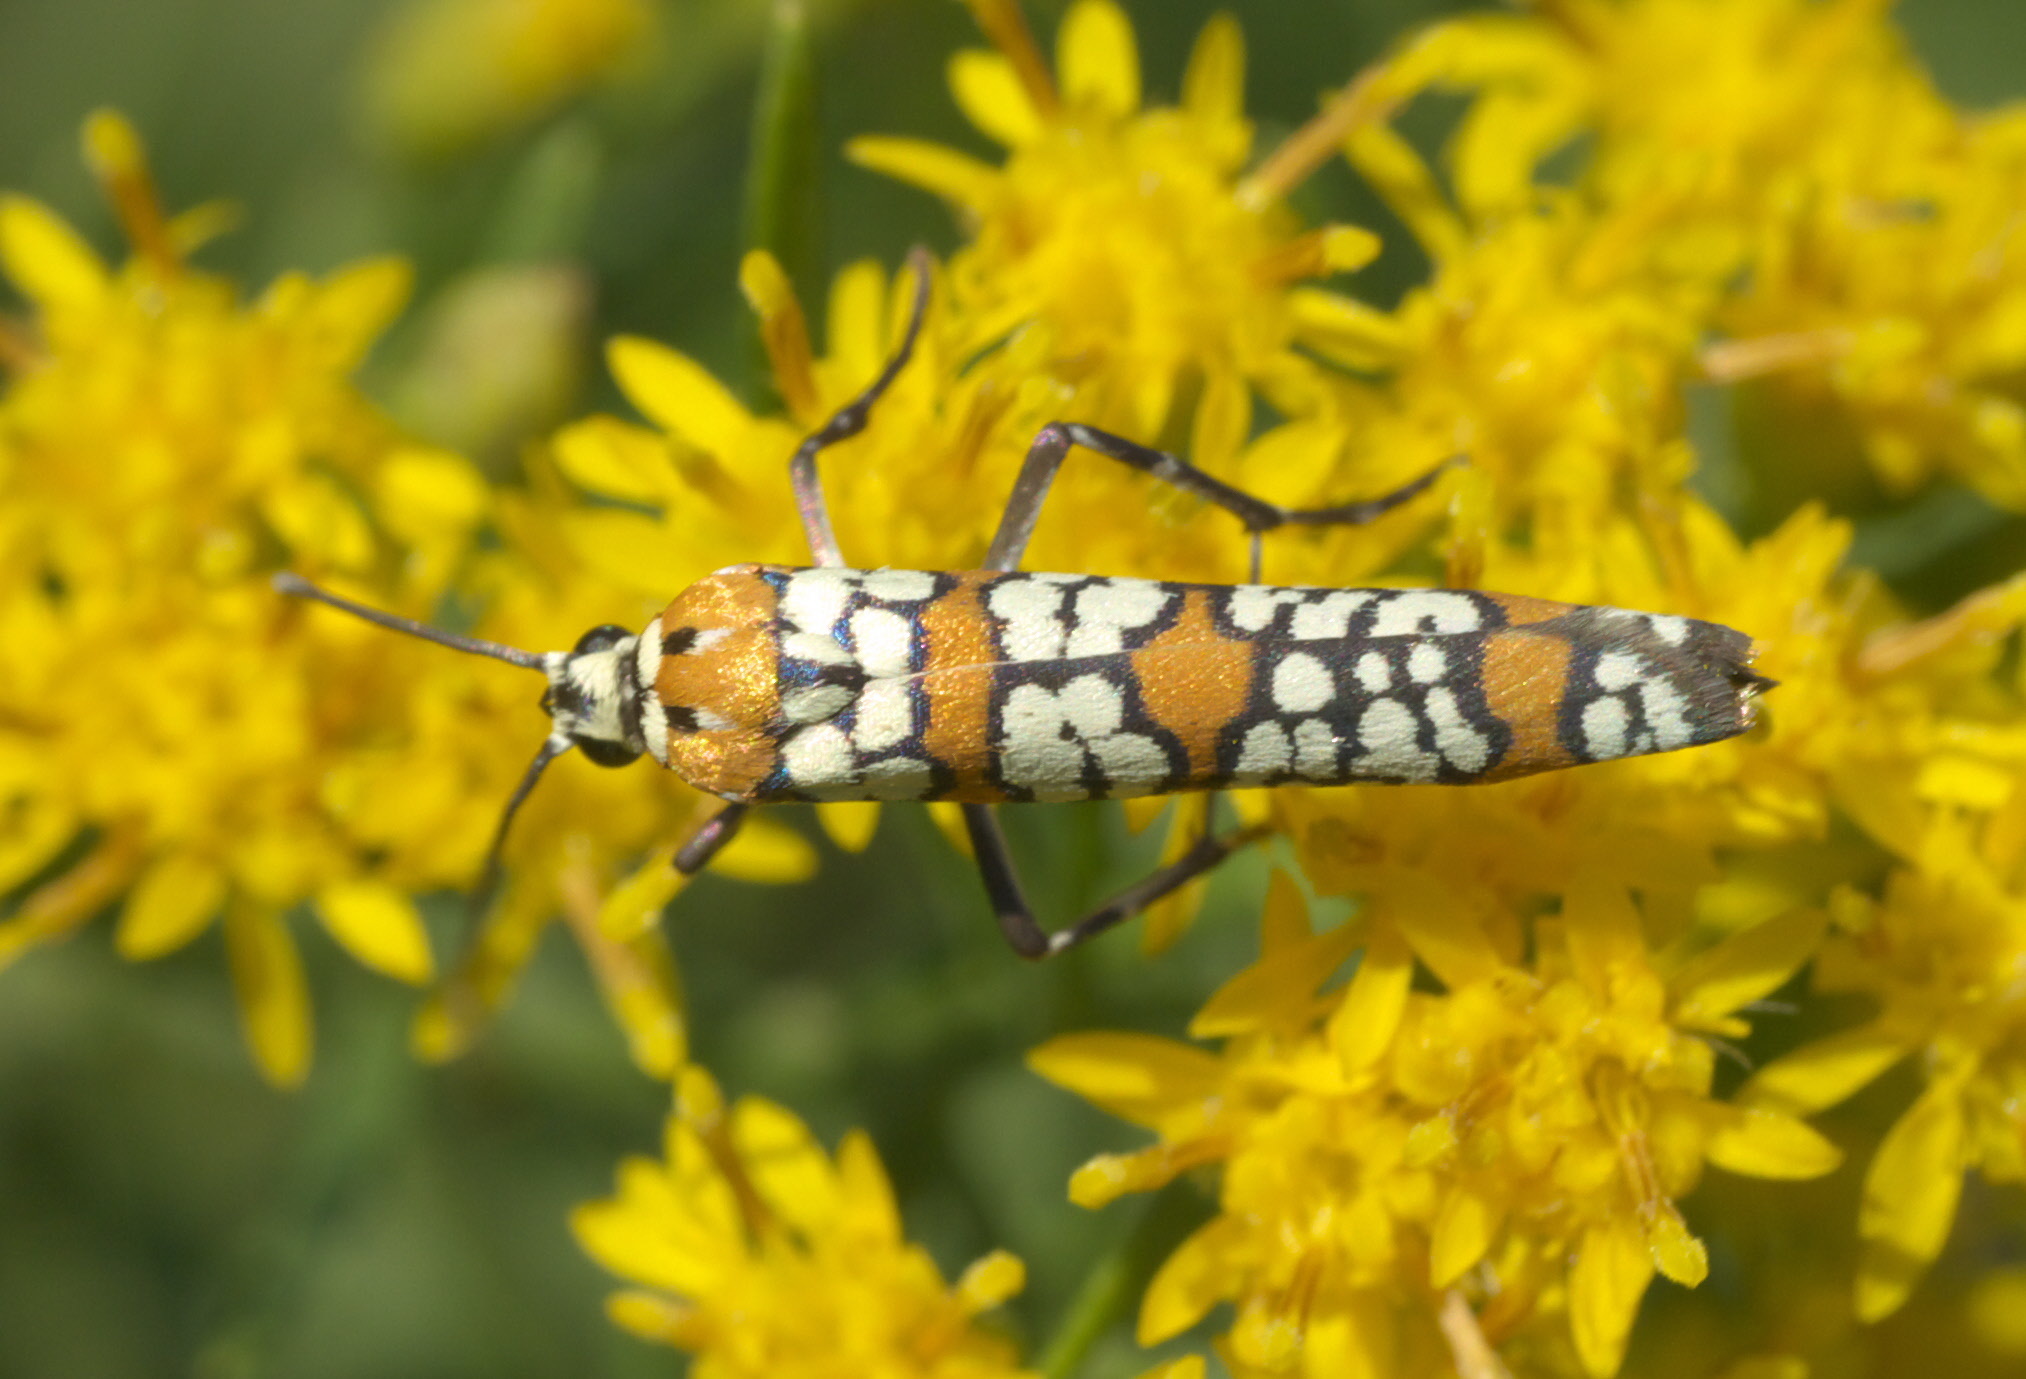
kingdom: Animalia
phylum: Arthropoda
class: Insecta
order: Lepidoptera
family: Attevidae
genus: Atteva
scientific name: Atteva punctella
